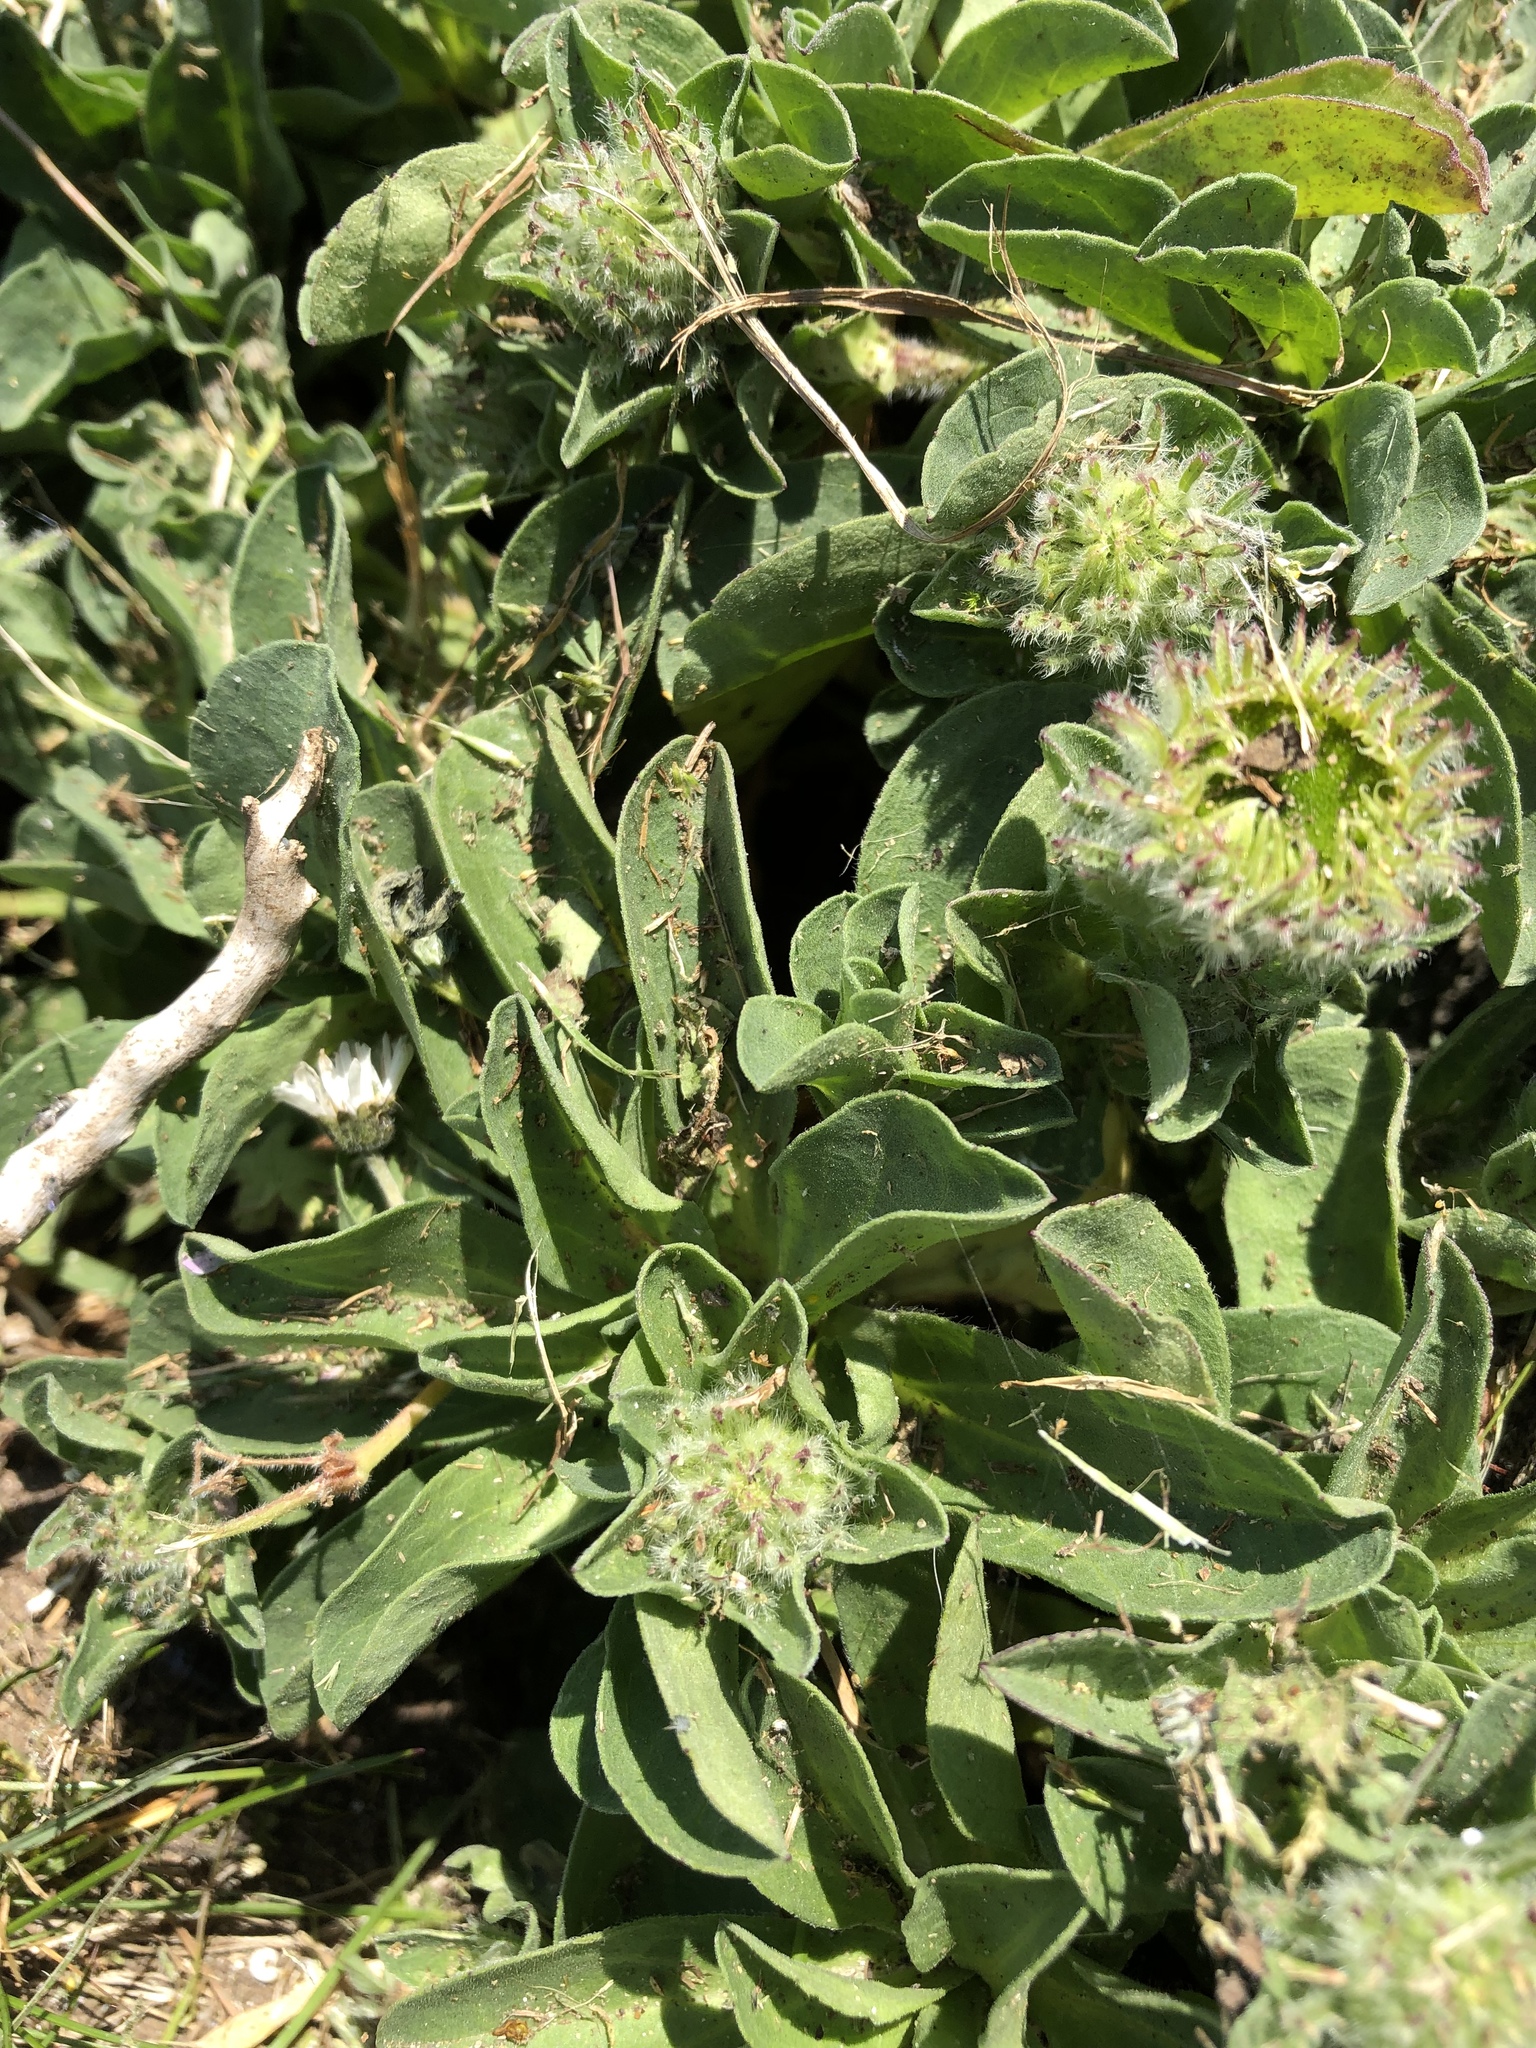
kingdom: Plantae
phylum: Tracheophyta
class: Magnoliopsida
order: Asterales
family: Asteraceae
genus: Erigeron
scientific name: Erigeron glaucus
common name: Seaside daisy
